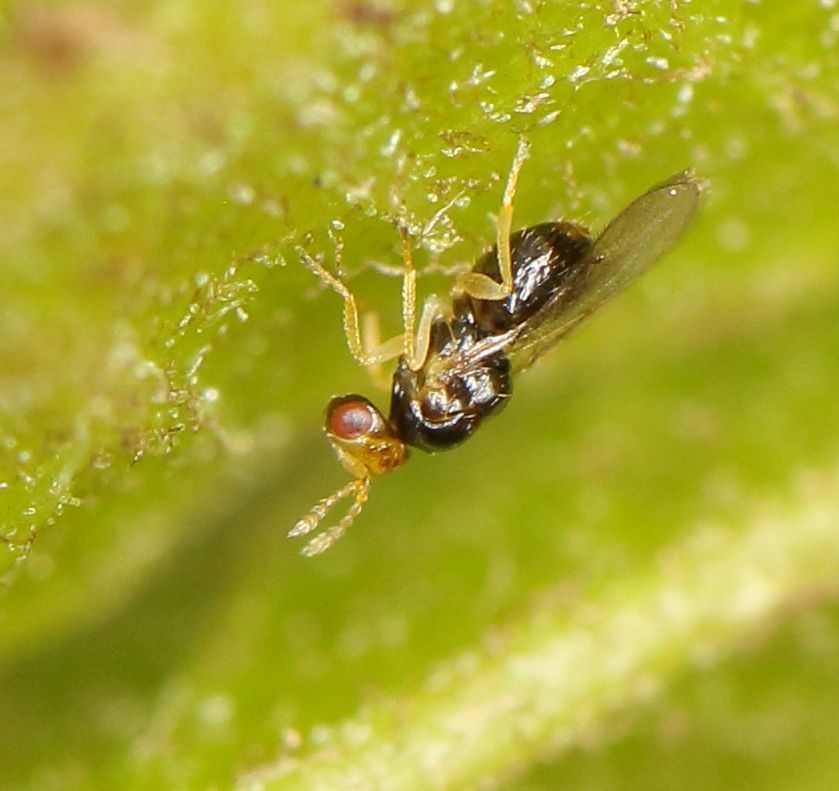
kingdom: Animalia
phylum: Arthropoda
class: Insecta
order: Hymenoptera
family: Eulophidae
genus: Quadrastichus
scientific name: Quadrastichus
